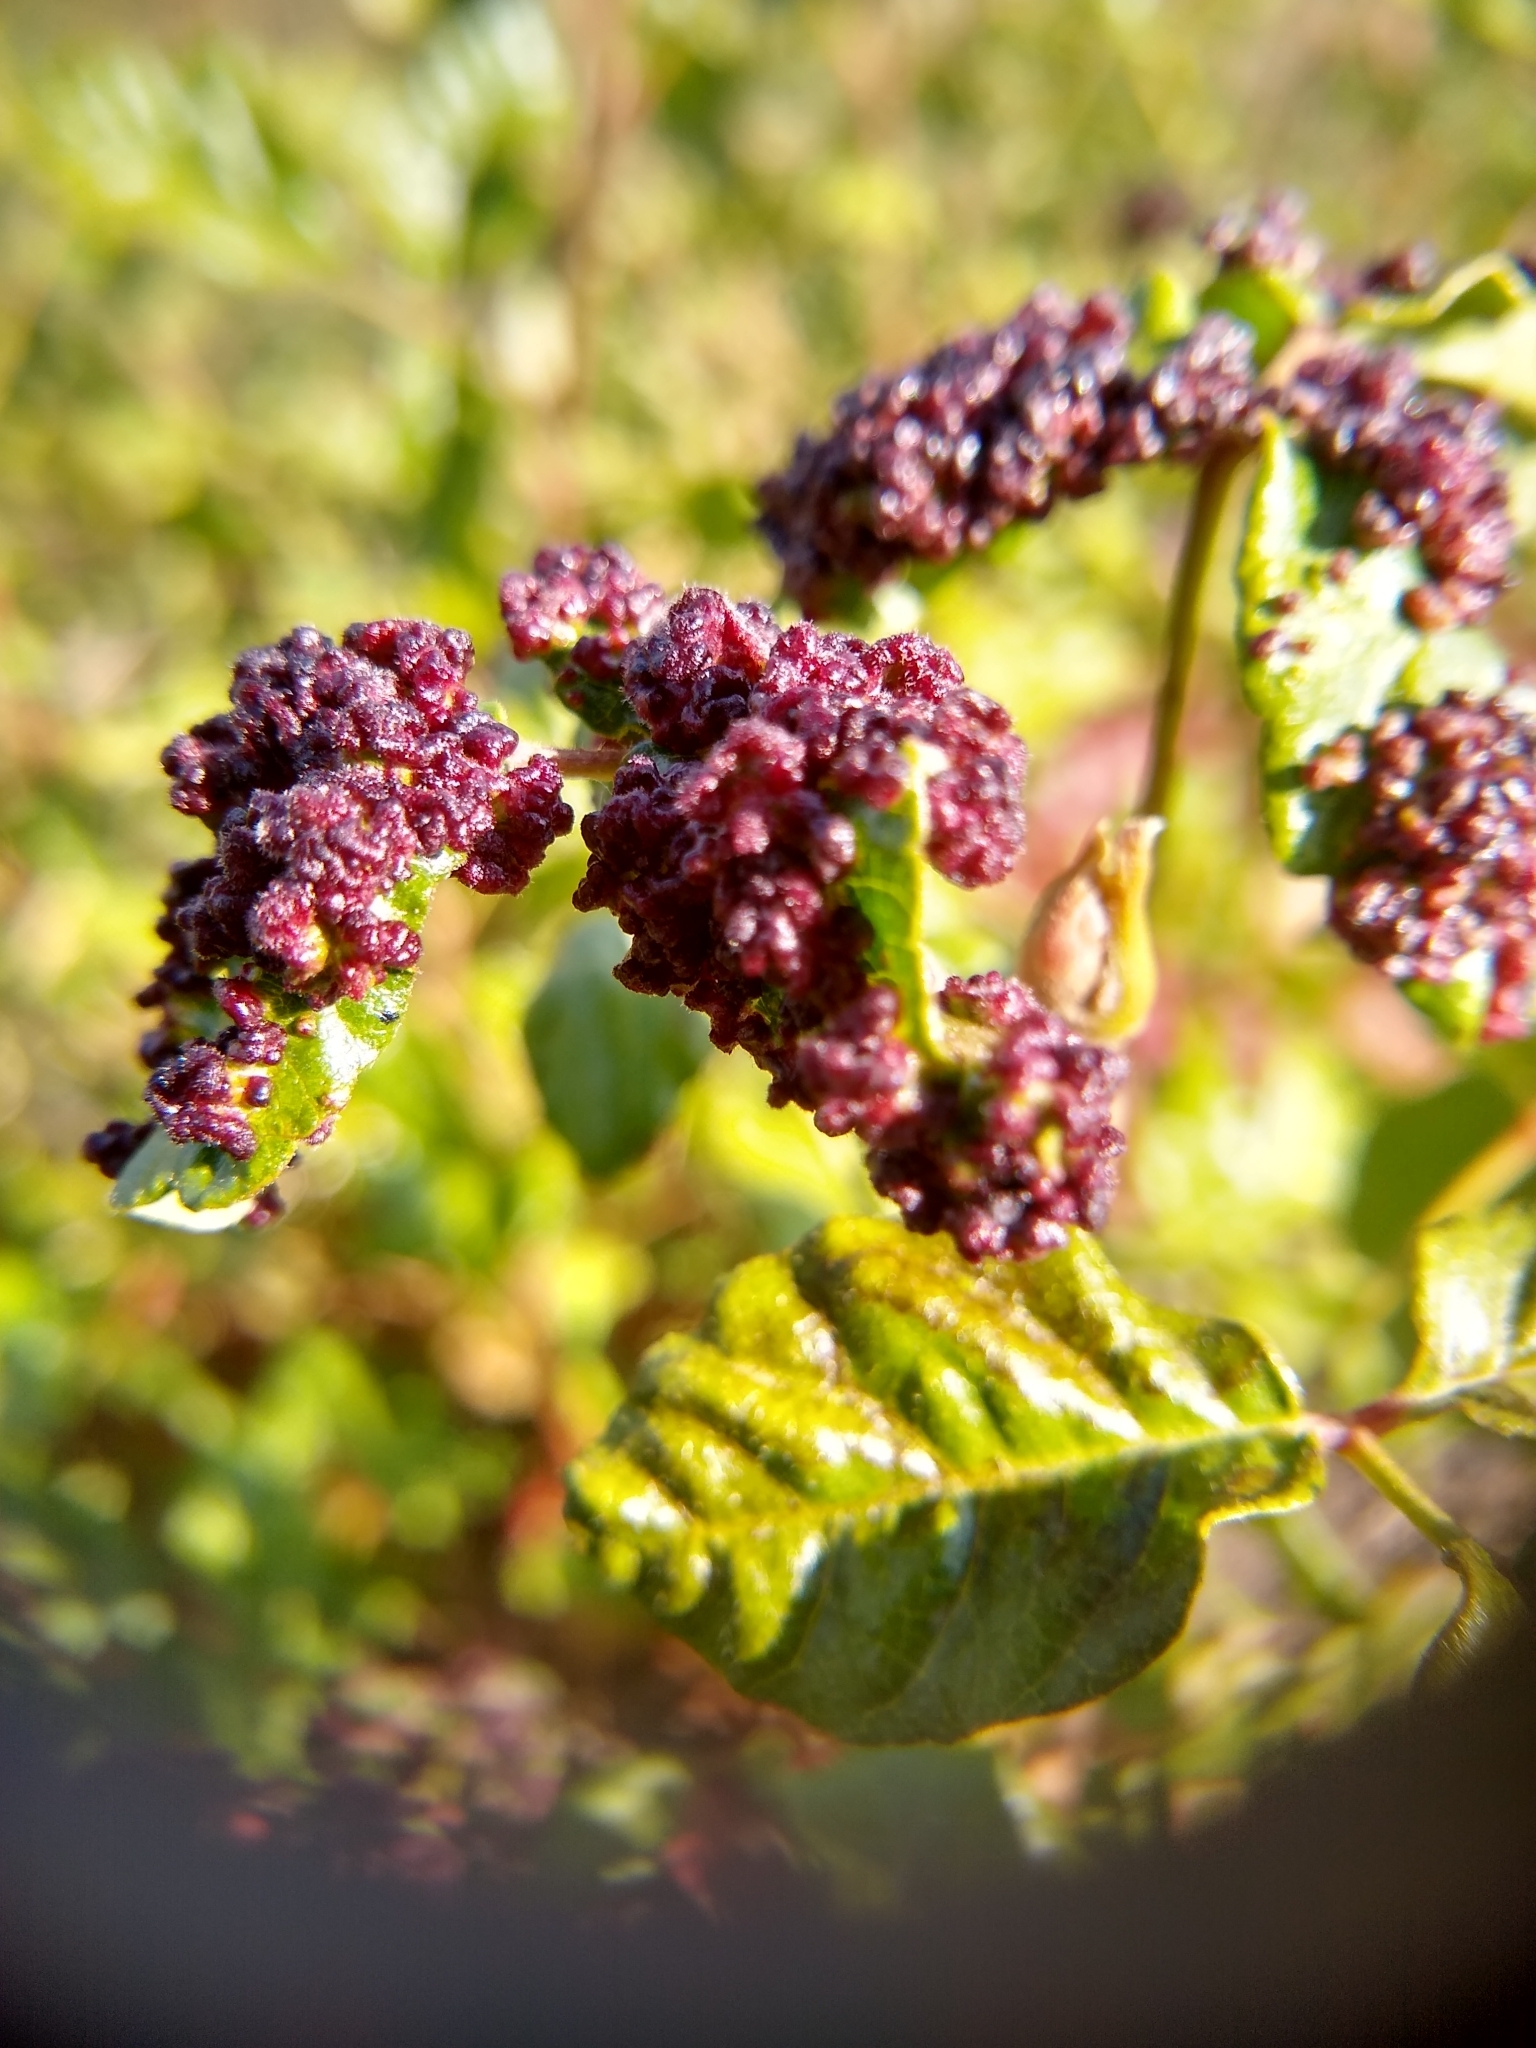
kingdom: Animalia
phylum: Arthropoda
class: Arachnida
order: Trombidiformes
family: Eriophyidae
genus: Aculops
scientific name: Aculops
